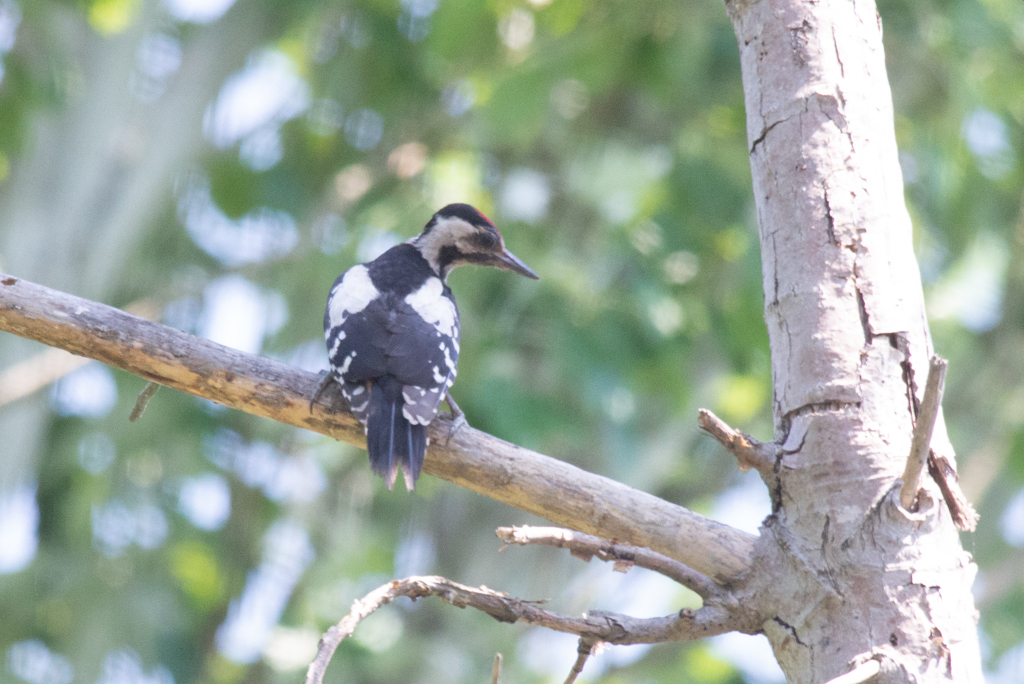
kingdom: Animalia
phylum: Chordata
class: Aves
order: Piciformes
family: Picidae
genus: Dendrocopos
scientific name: Dendrocopos syriacus
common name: Syrian woodpecker
